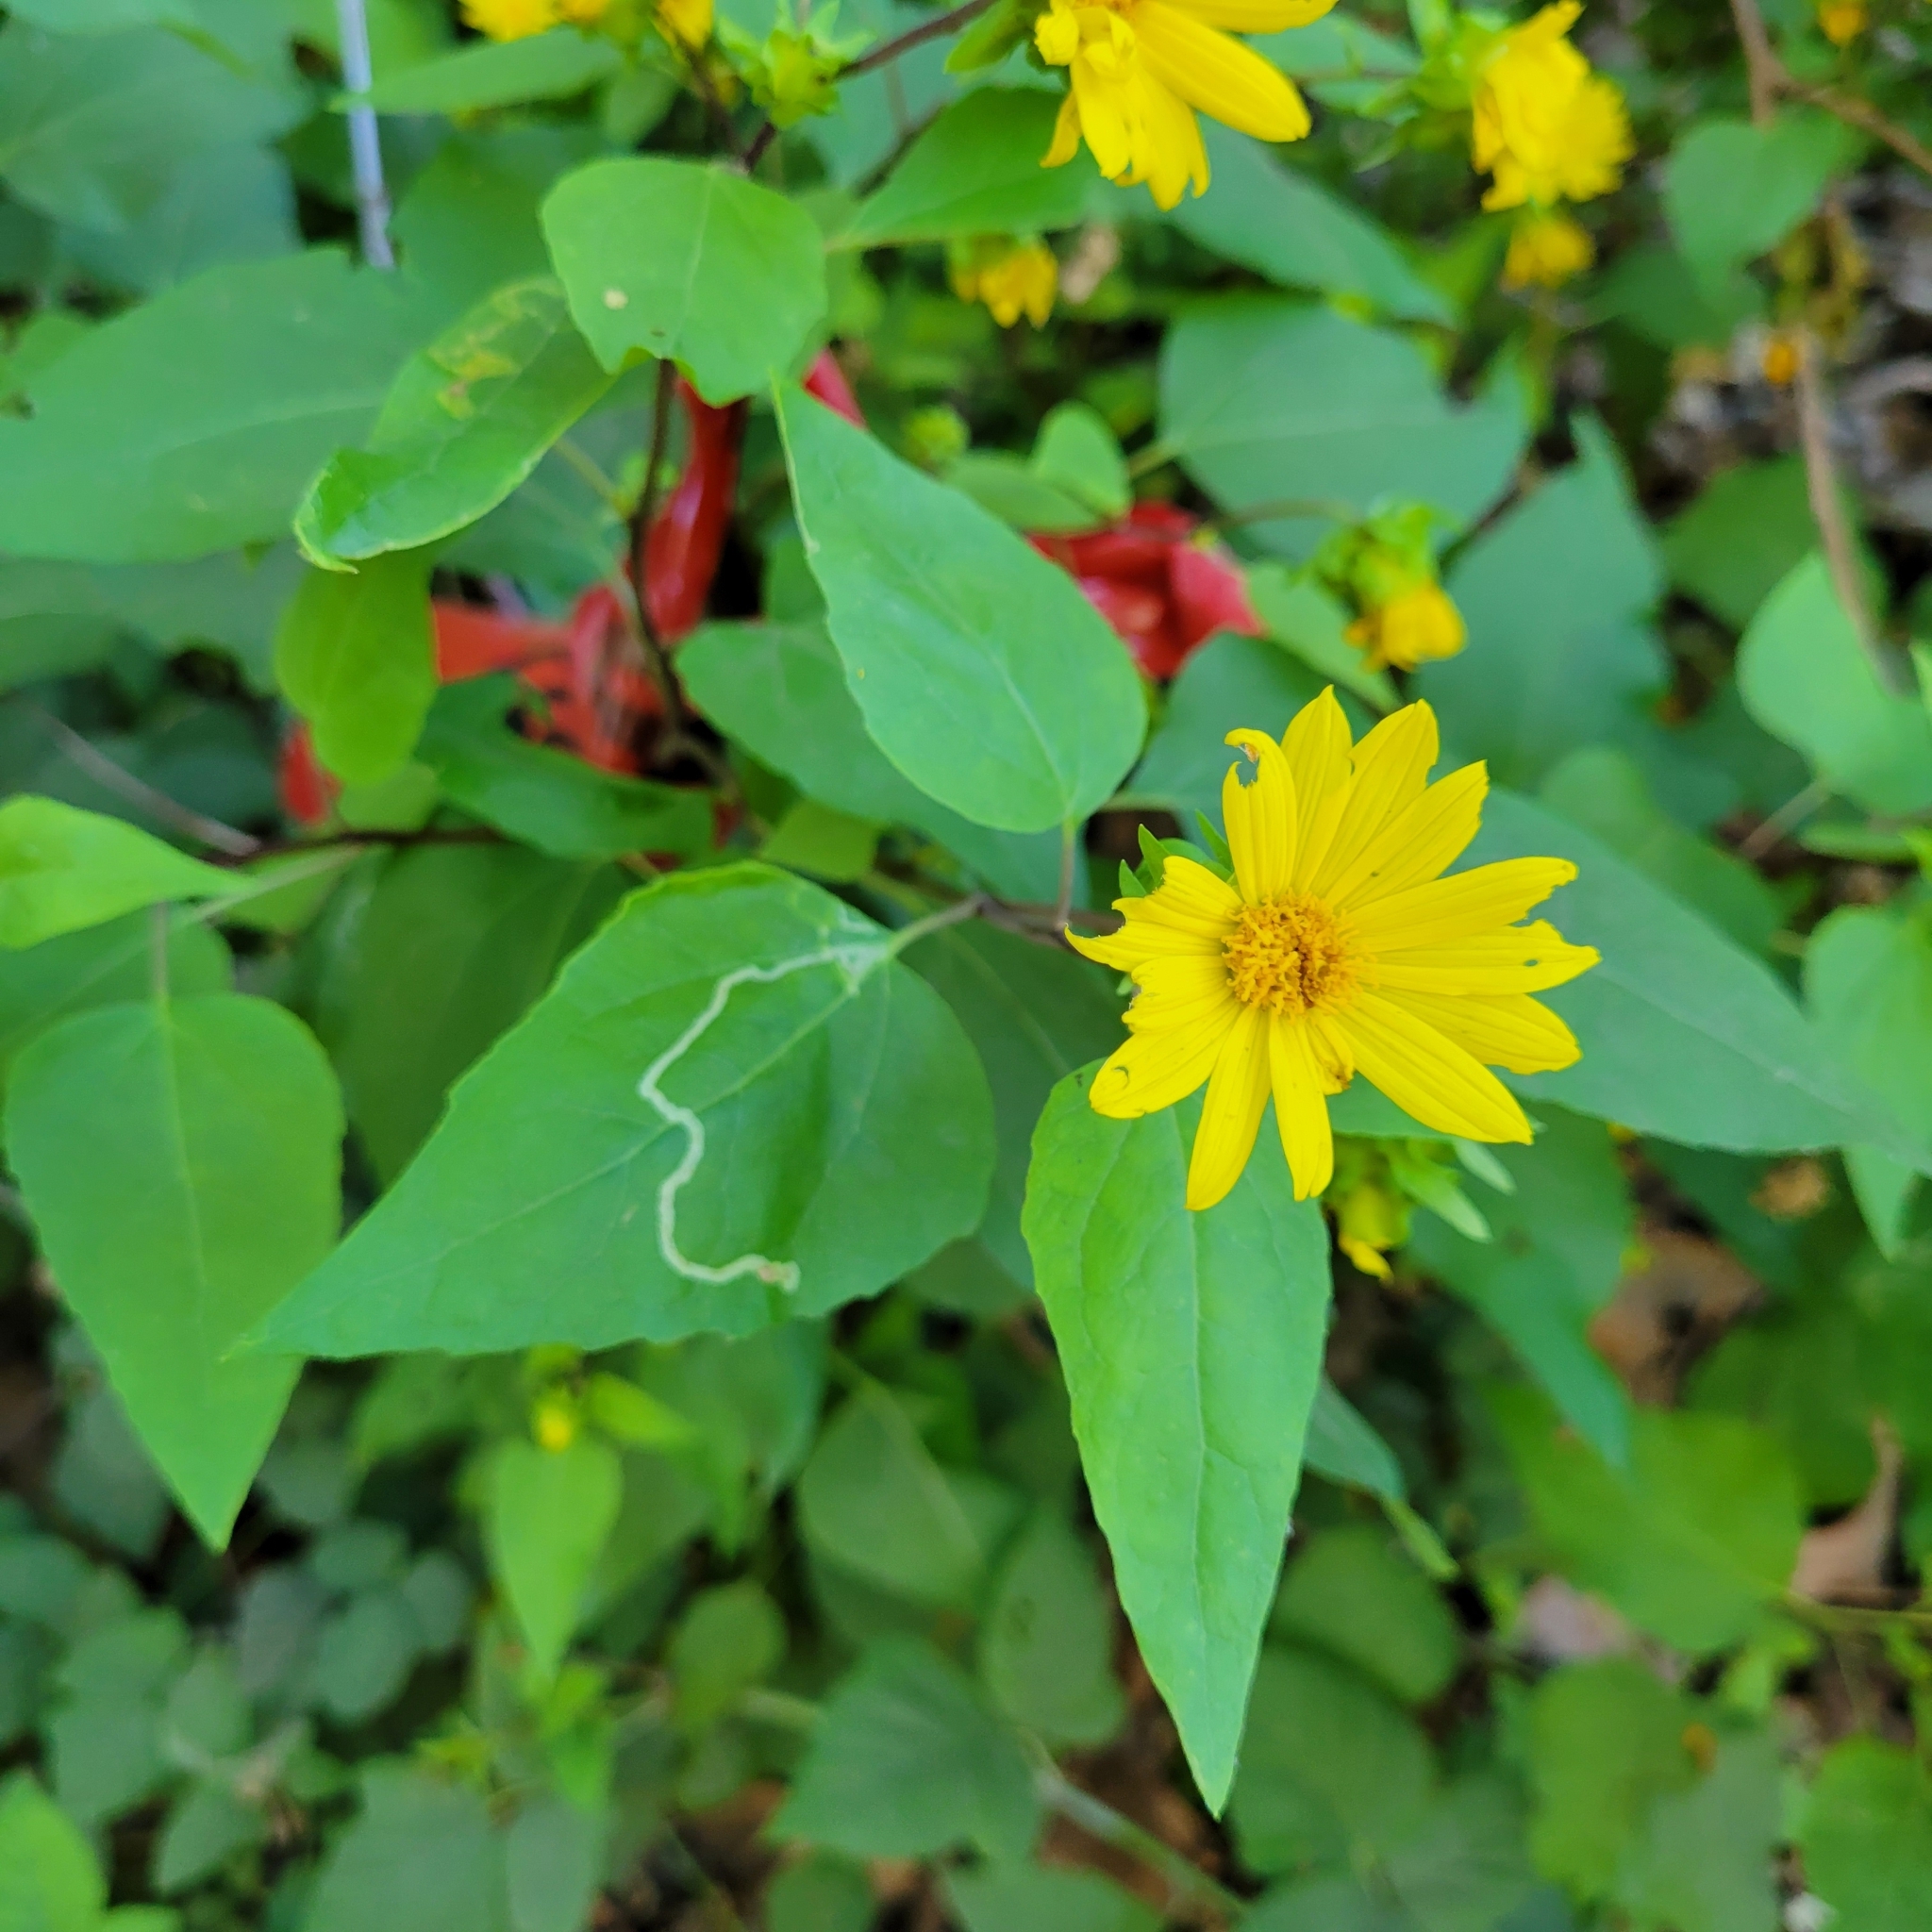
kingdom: Plantae
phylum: Tracheophyta
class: Magnoliopsida
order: Asterales
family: Asteraceae
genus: Venegasia
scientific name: Venegasia carpesioides
